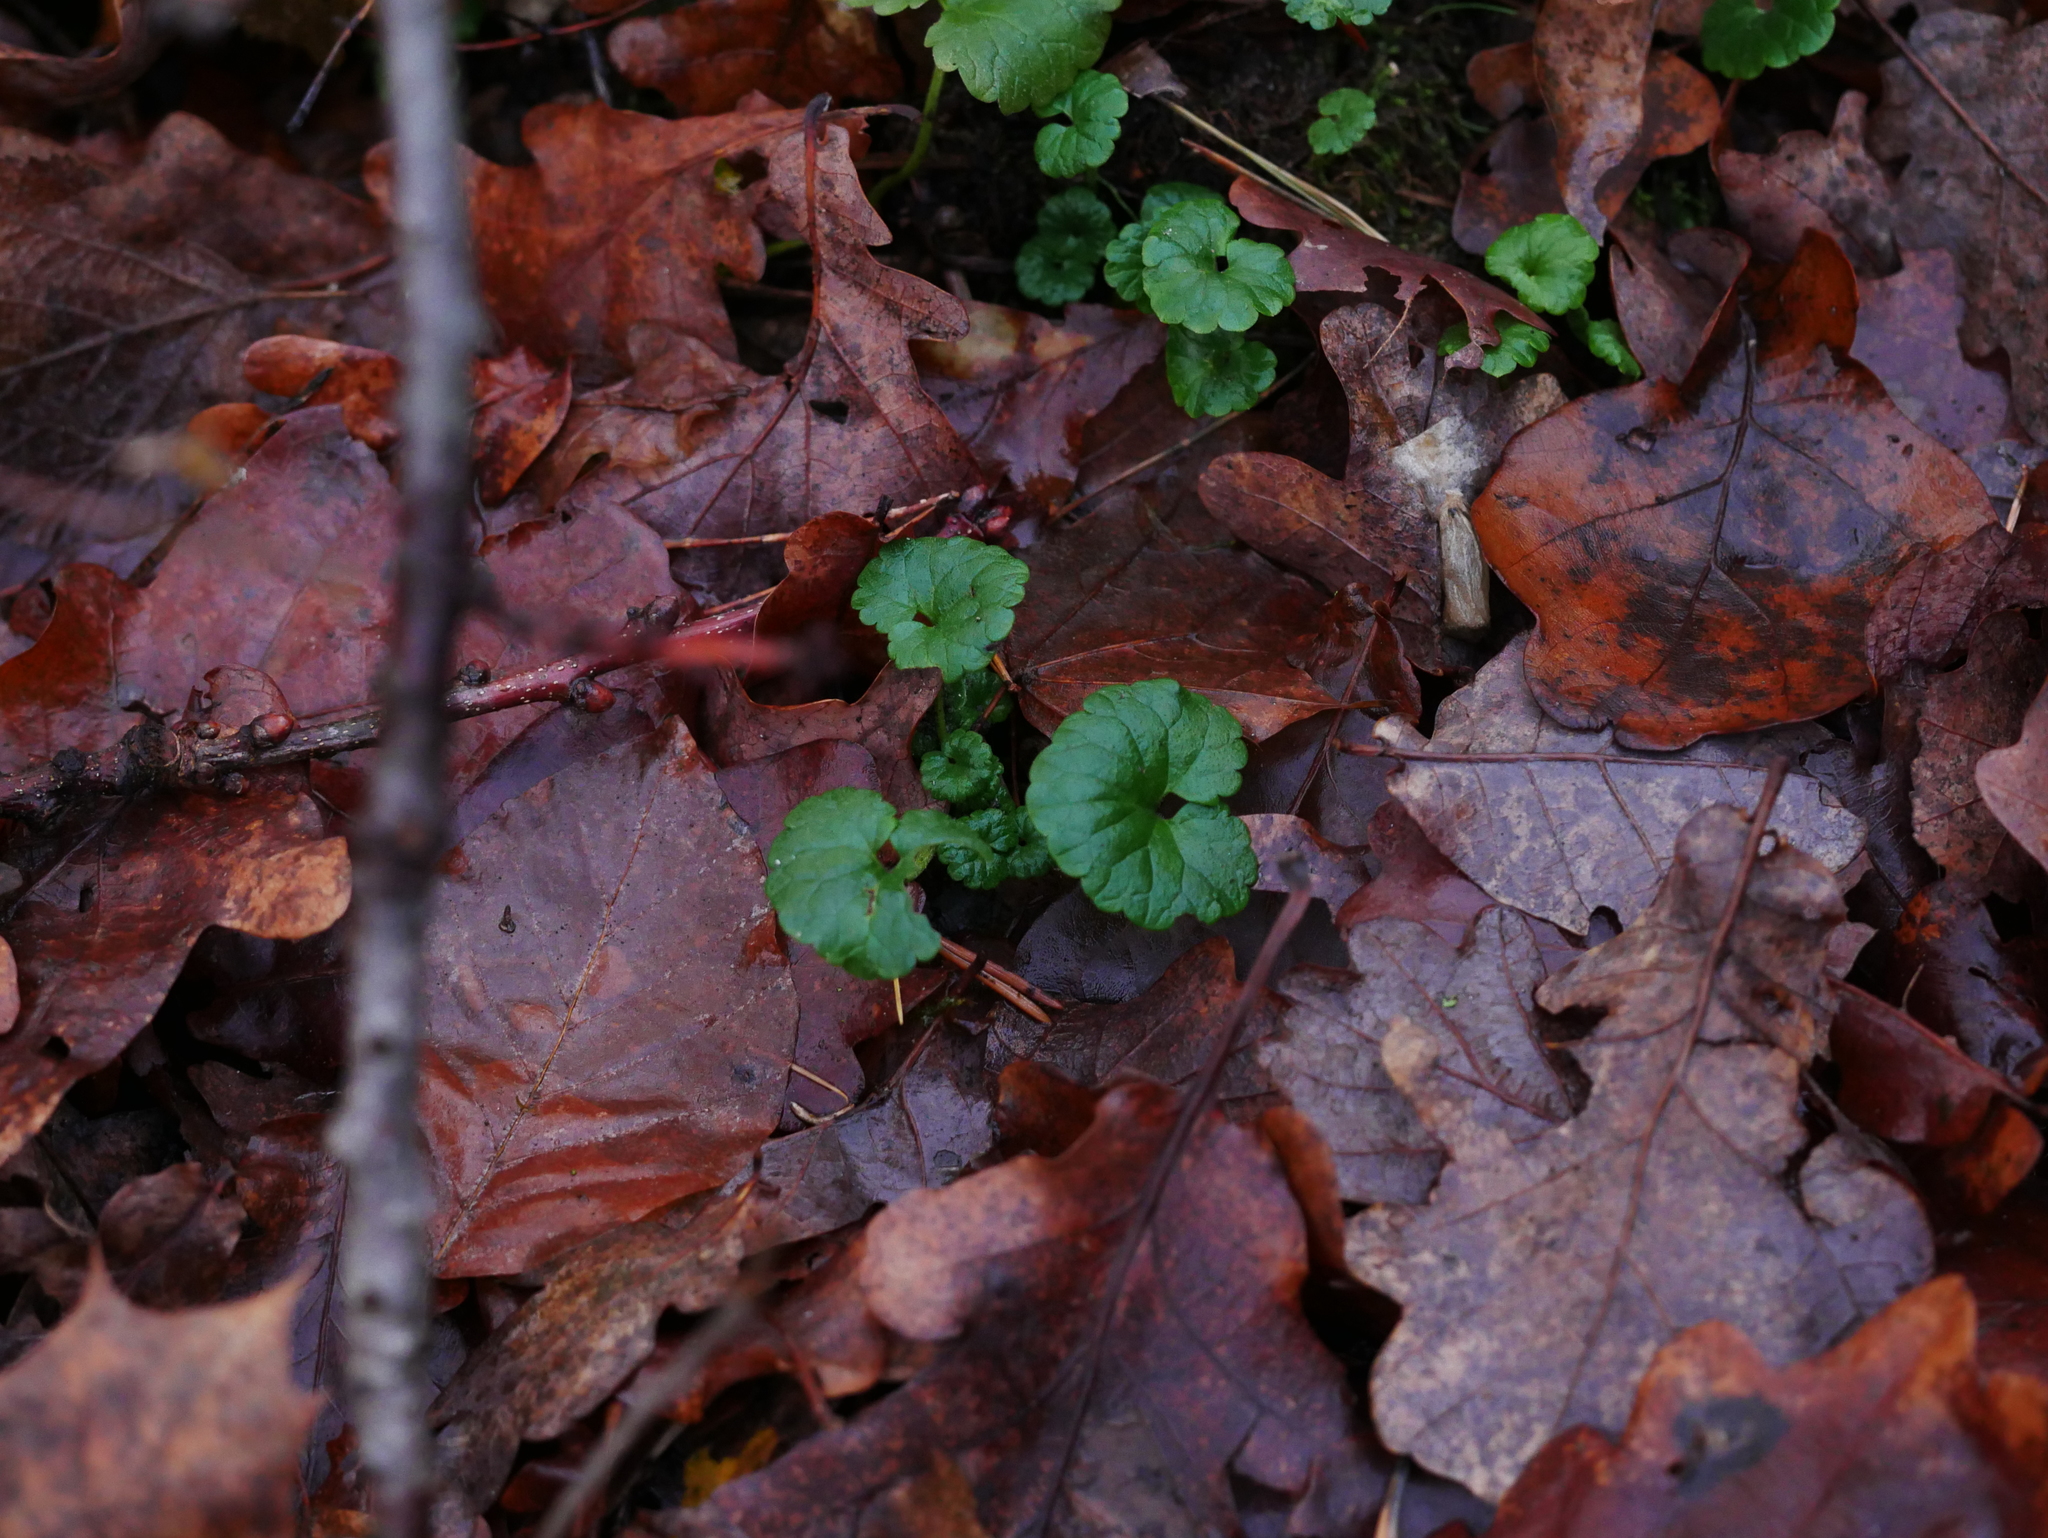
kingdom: Plantae
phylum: Tracheophyta
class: Magnoliopsida
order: Lamiales
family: Lamiaceae
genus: Glechoma
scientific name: Glechoma hederacea
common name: Ground ivy
